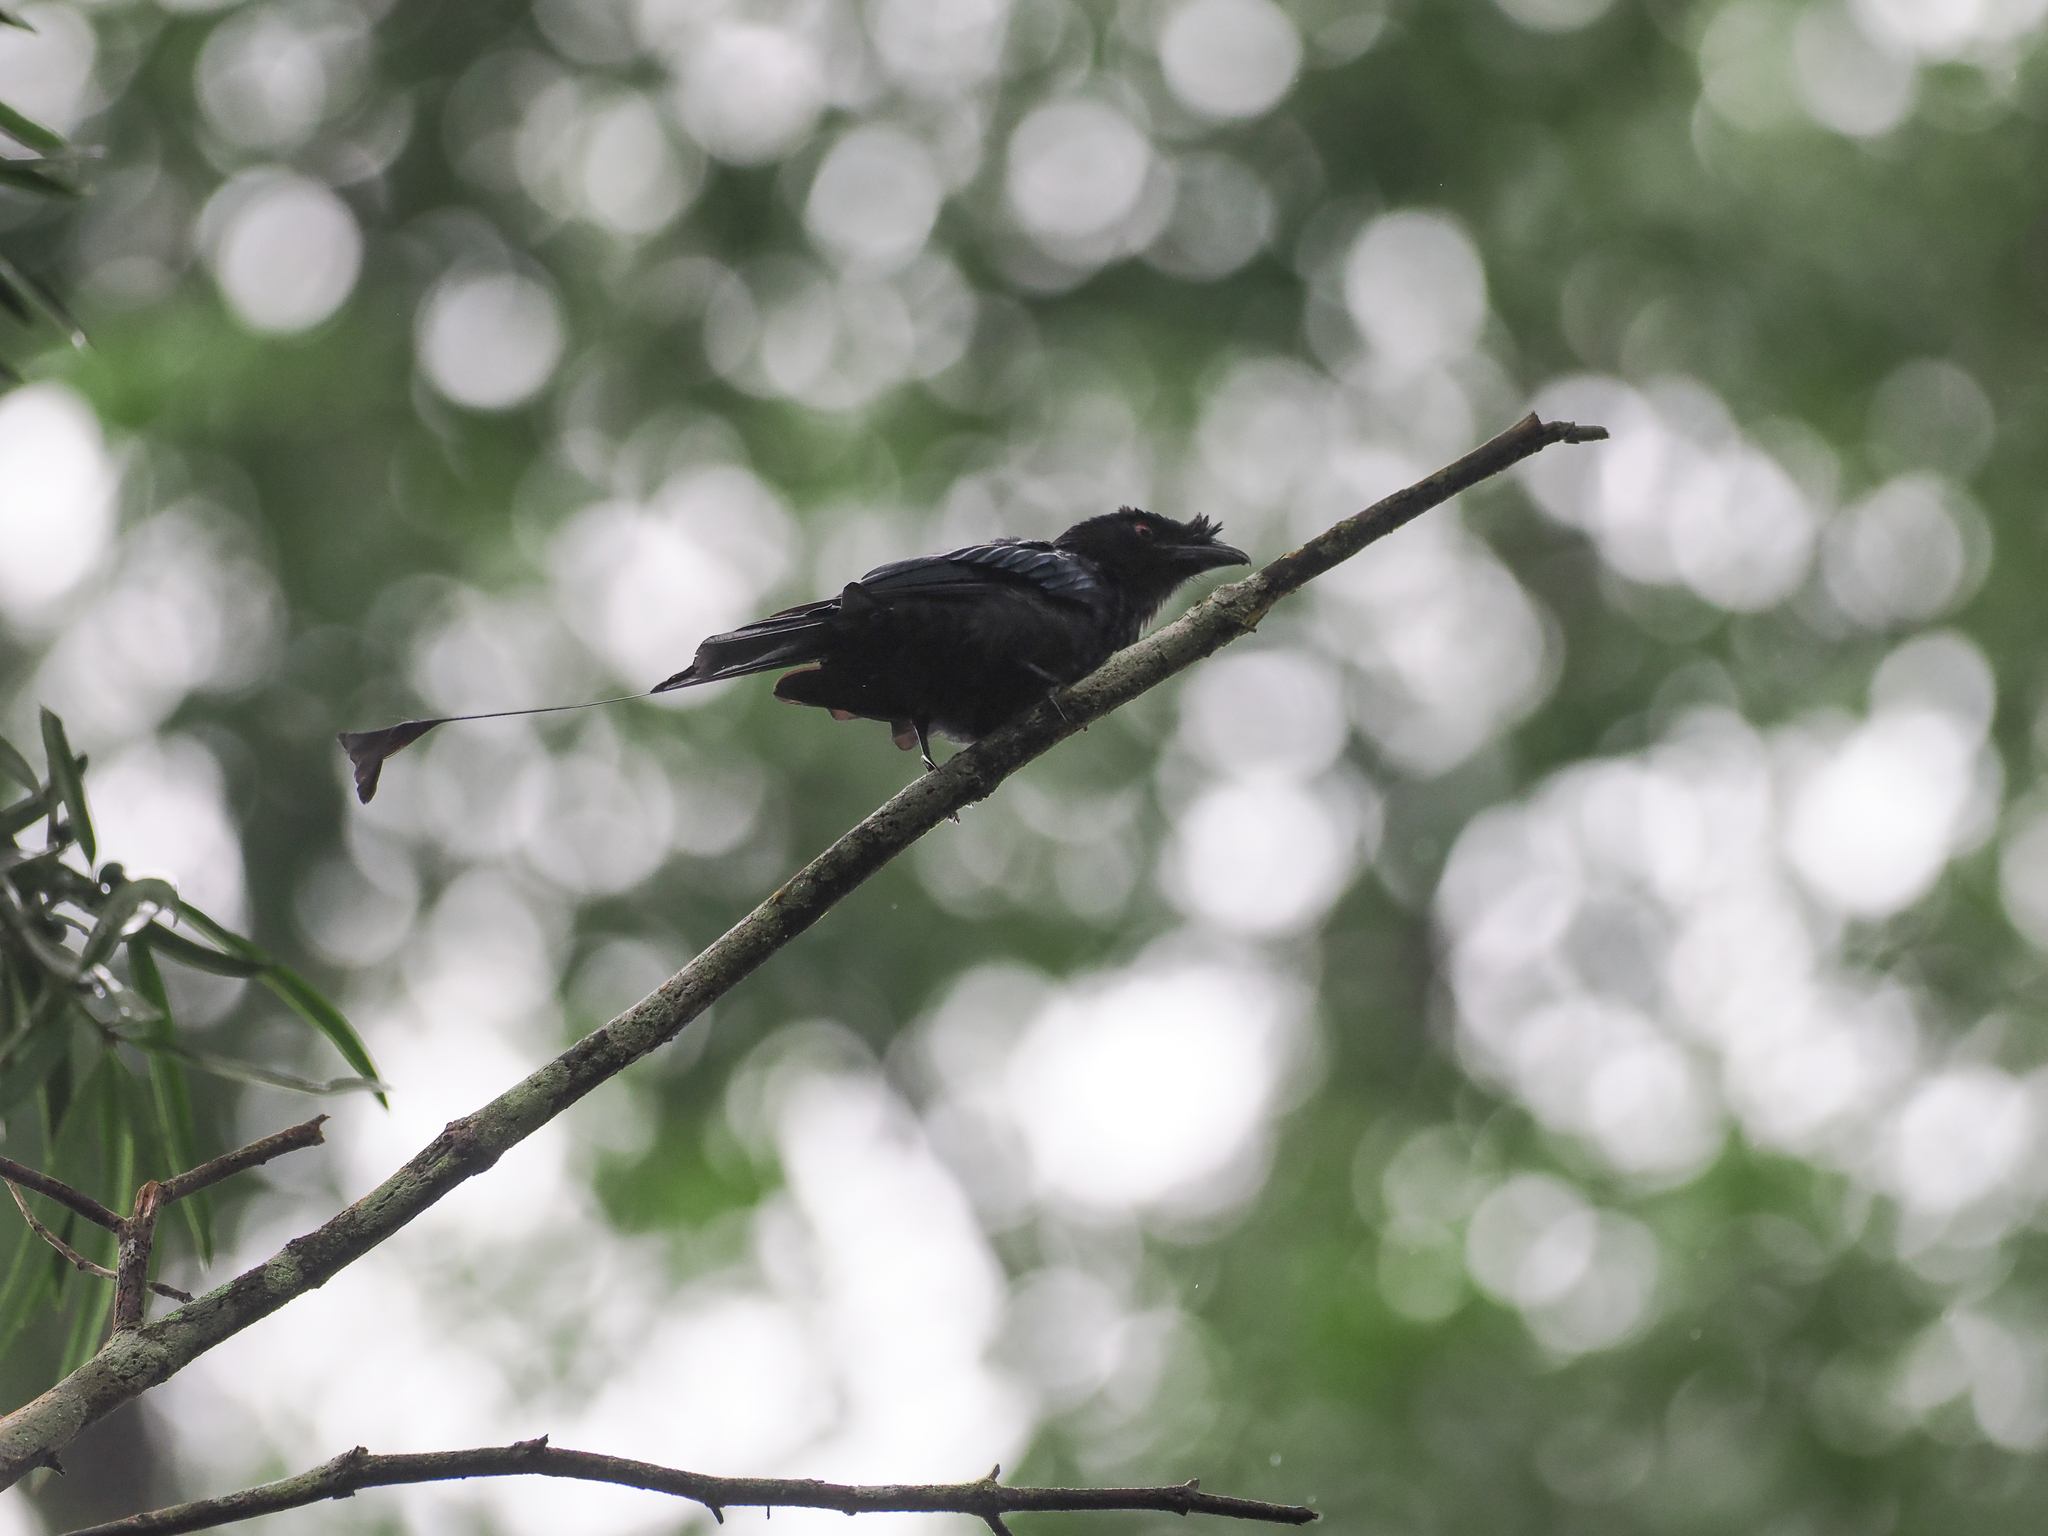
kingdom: Animalia
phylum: Chordata
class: Aves
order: Passeriformes
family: Dicruridae
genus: Dicrurus
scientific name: Dicrurus paradiseus
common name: Greater racket-tailed drongo
